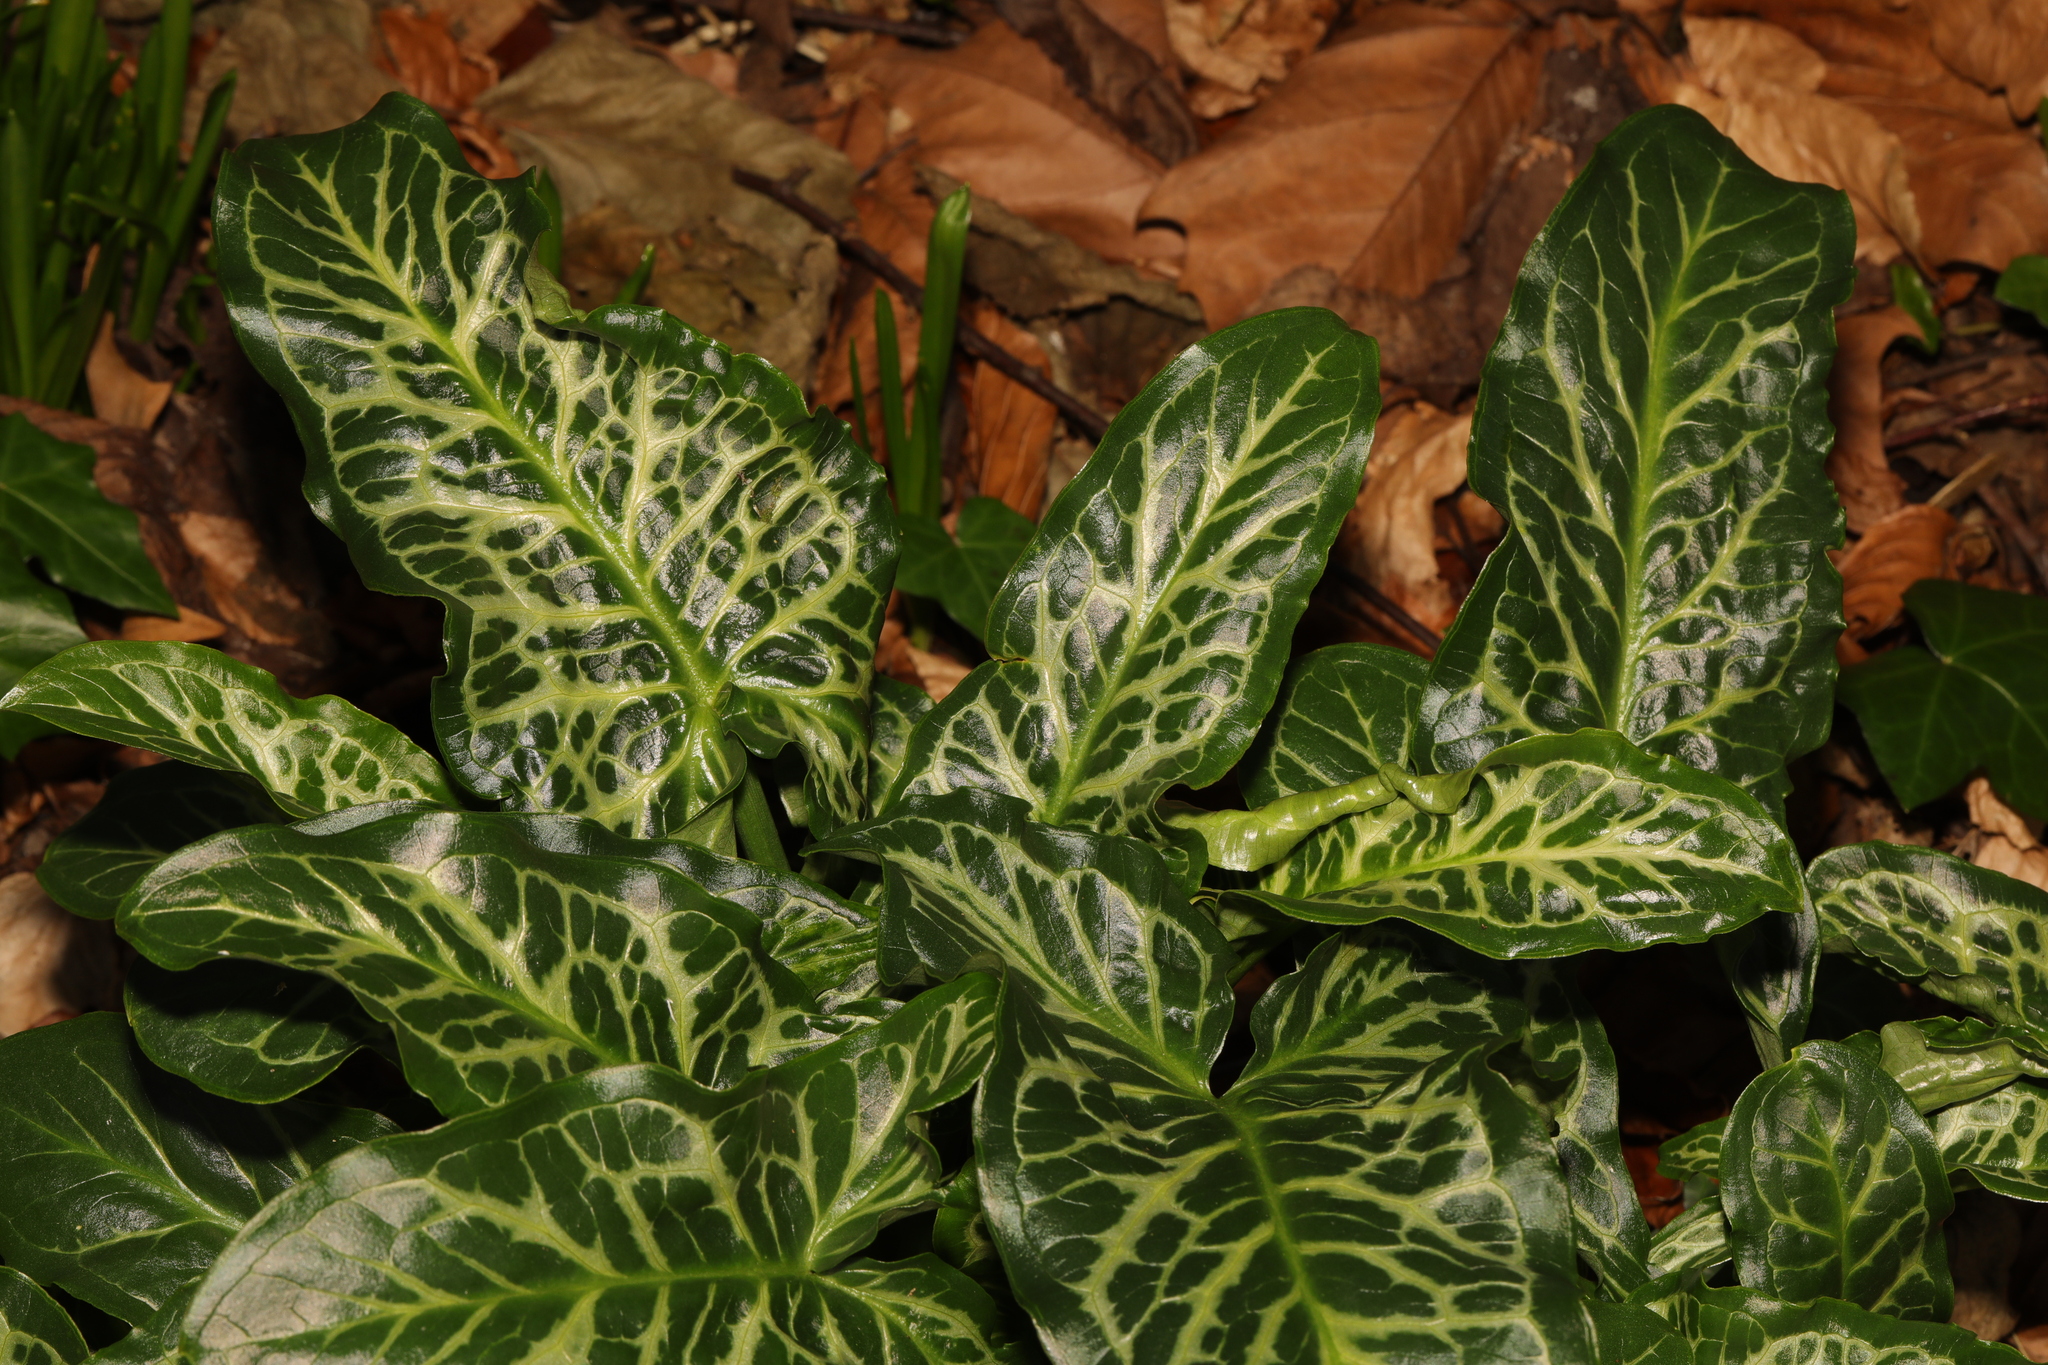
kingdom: Plantae
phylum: Tracheophyta
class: Liliopsida
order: Alismatales
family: Araceae
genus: Arum
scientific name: Arum italicum
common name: Italian lords-and-ladies
